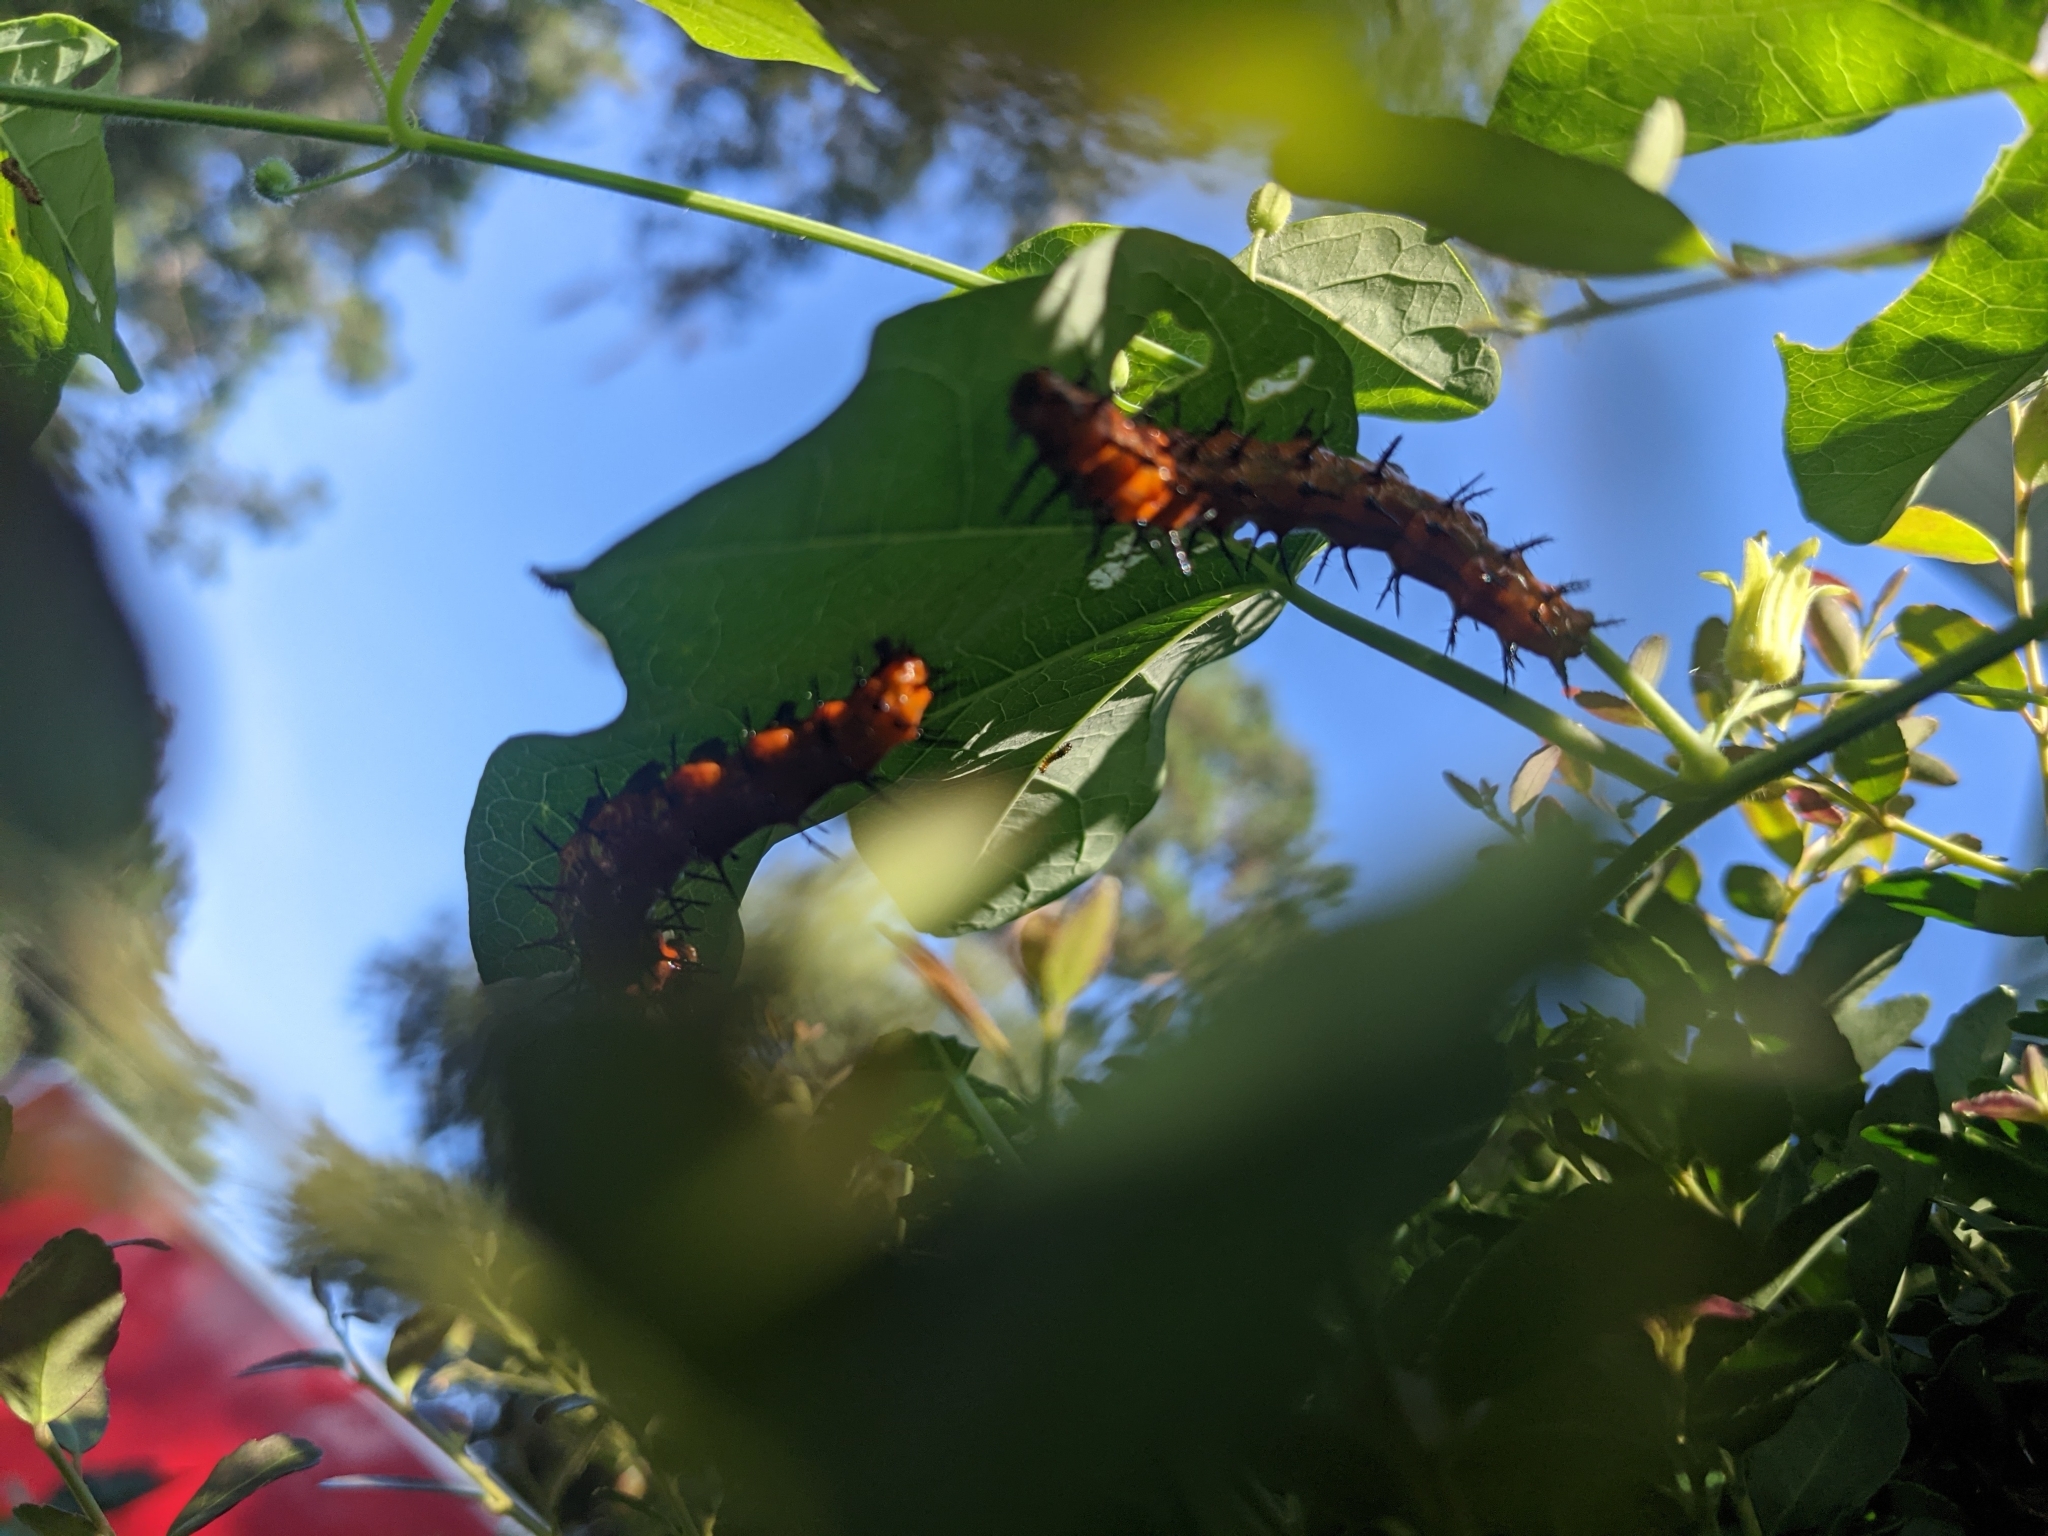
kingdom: Animalia
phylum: Arthropoda
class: Insecta
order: Lepidoptera
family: Nymphalidae
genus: Dione
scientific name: Dione vanillae
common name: Gulf fritillary
